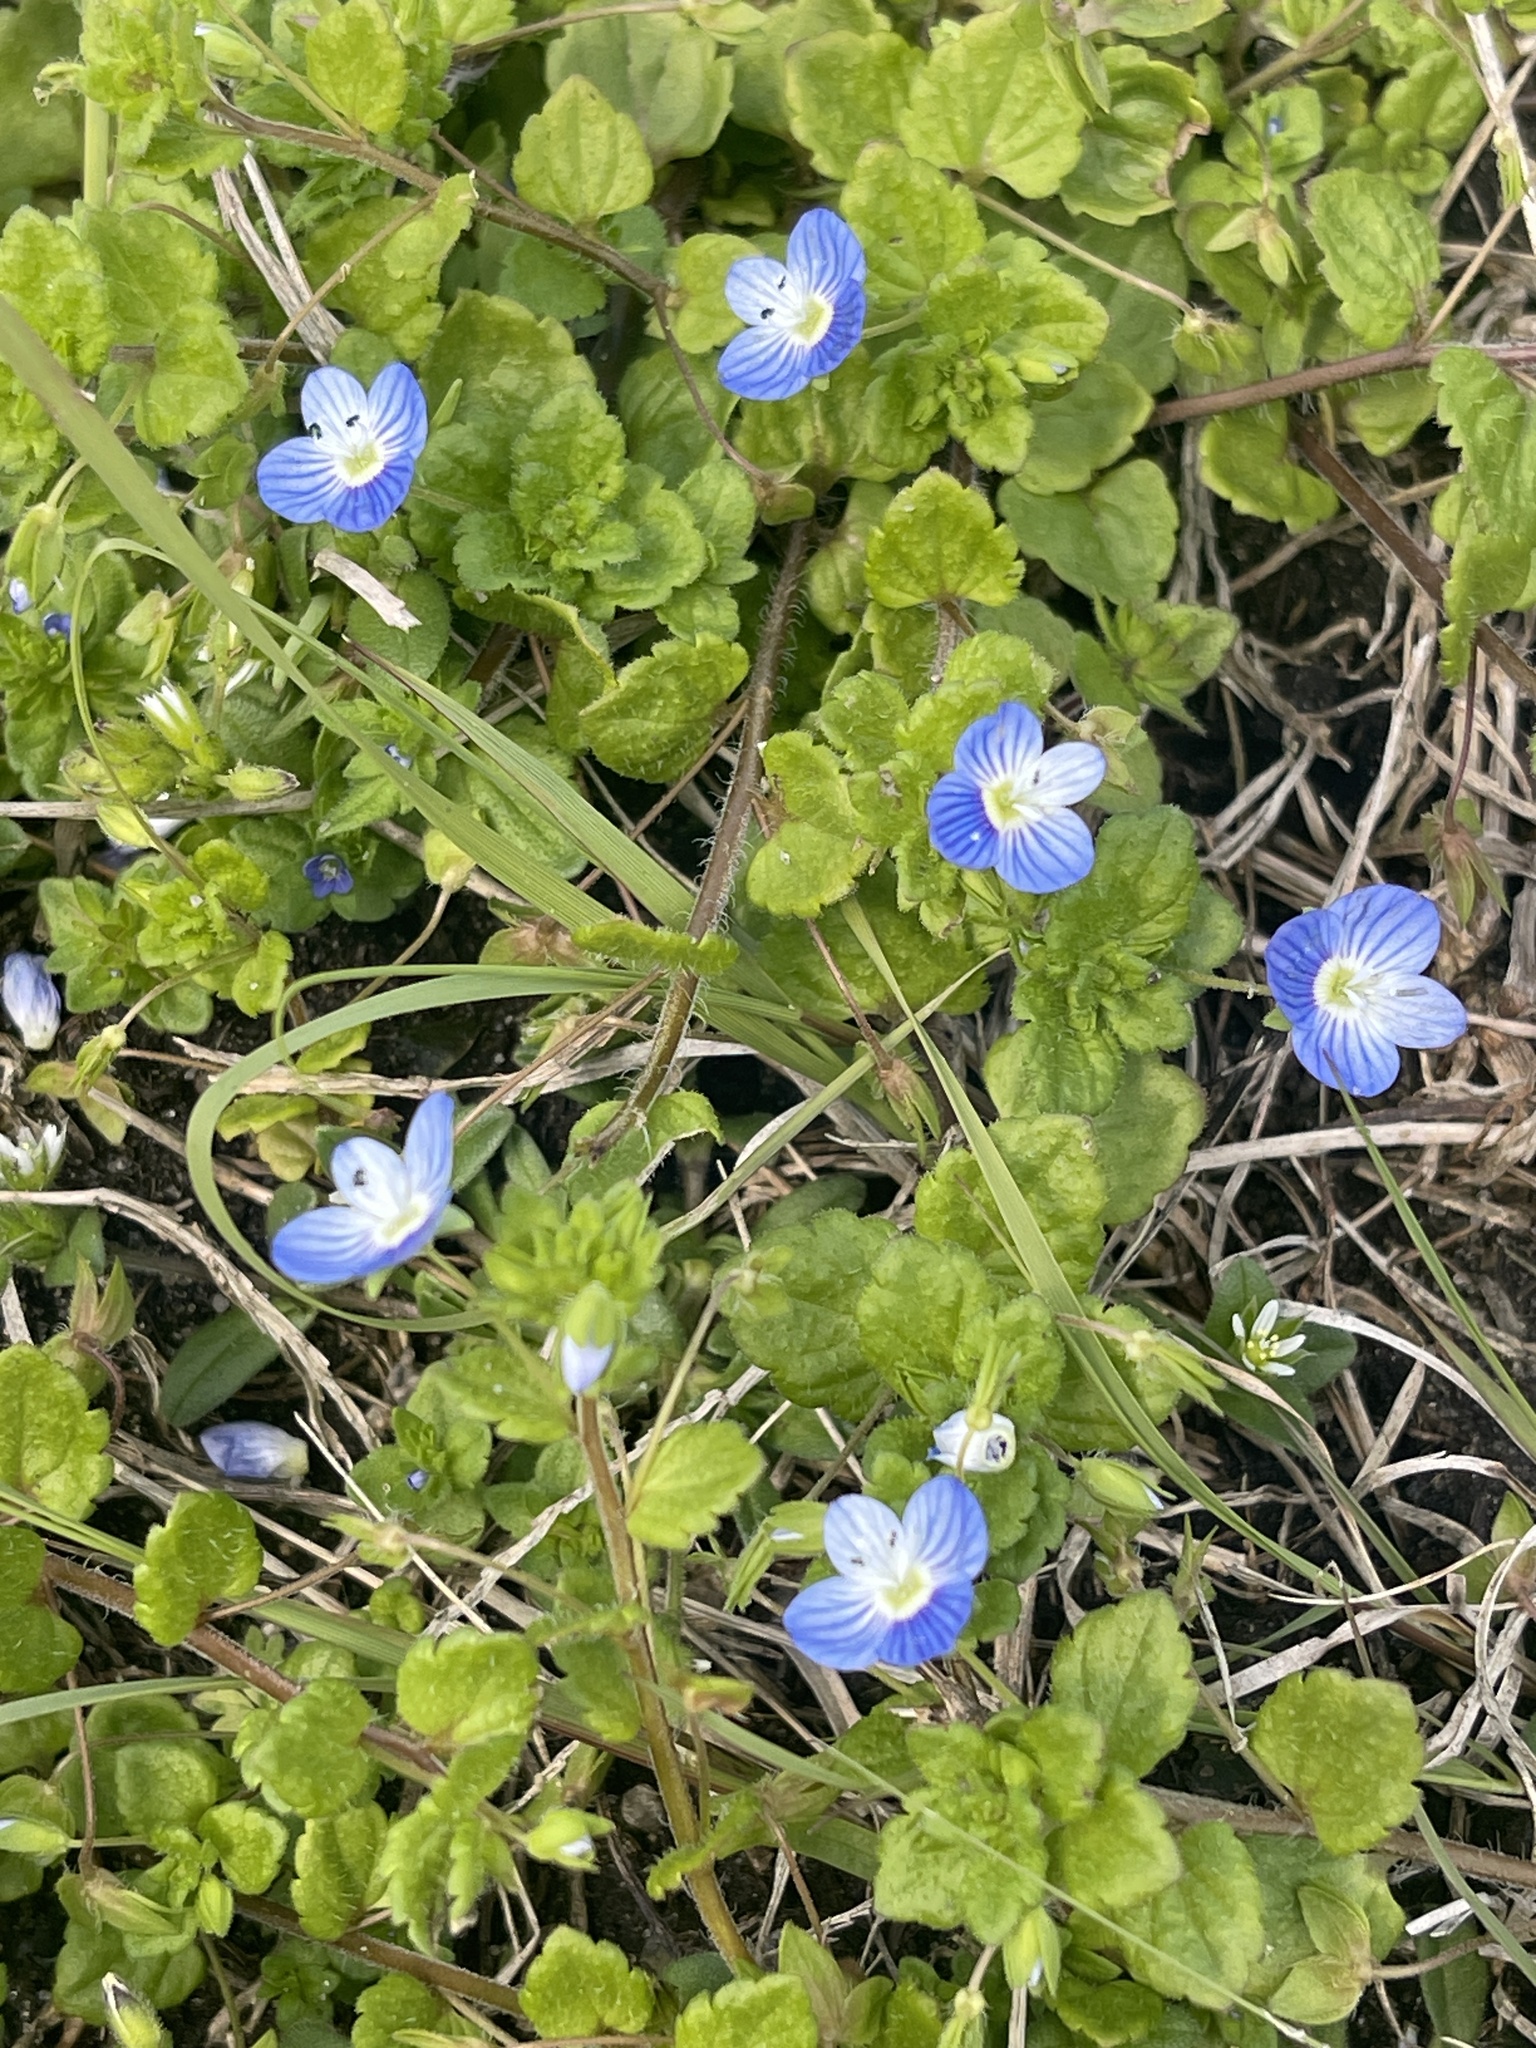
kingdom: Plantae
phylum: Tracheophyta
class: Magnoliopsida
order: Lamiales
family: Plantaginaceae
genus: Veronica
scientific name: Veronica persica
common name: Common field-speedwell
